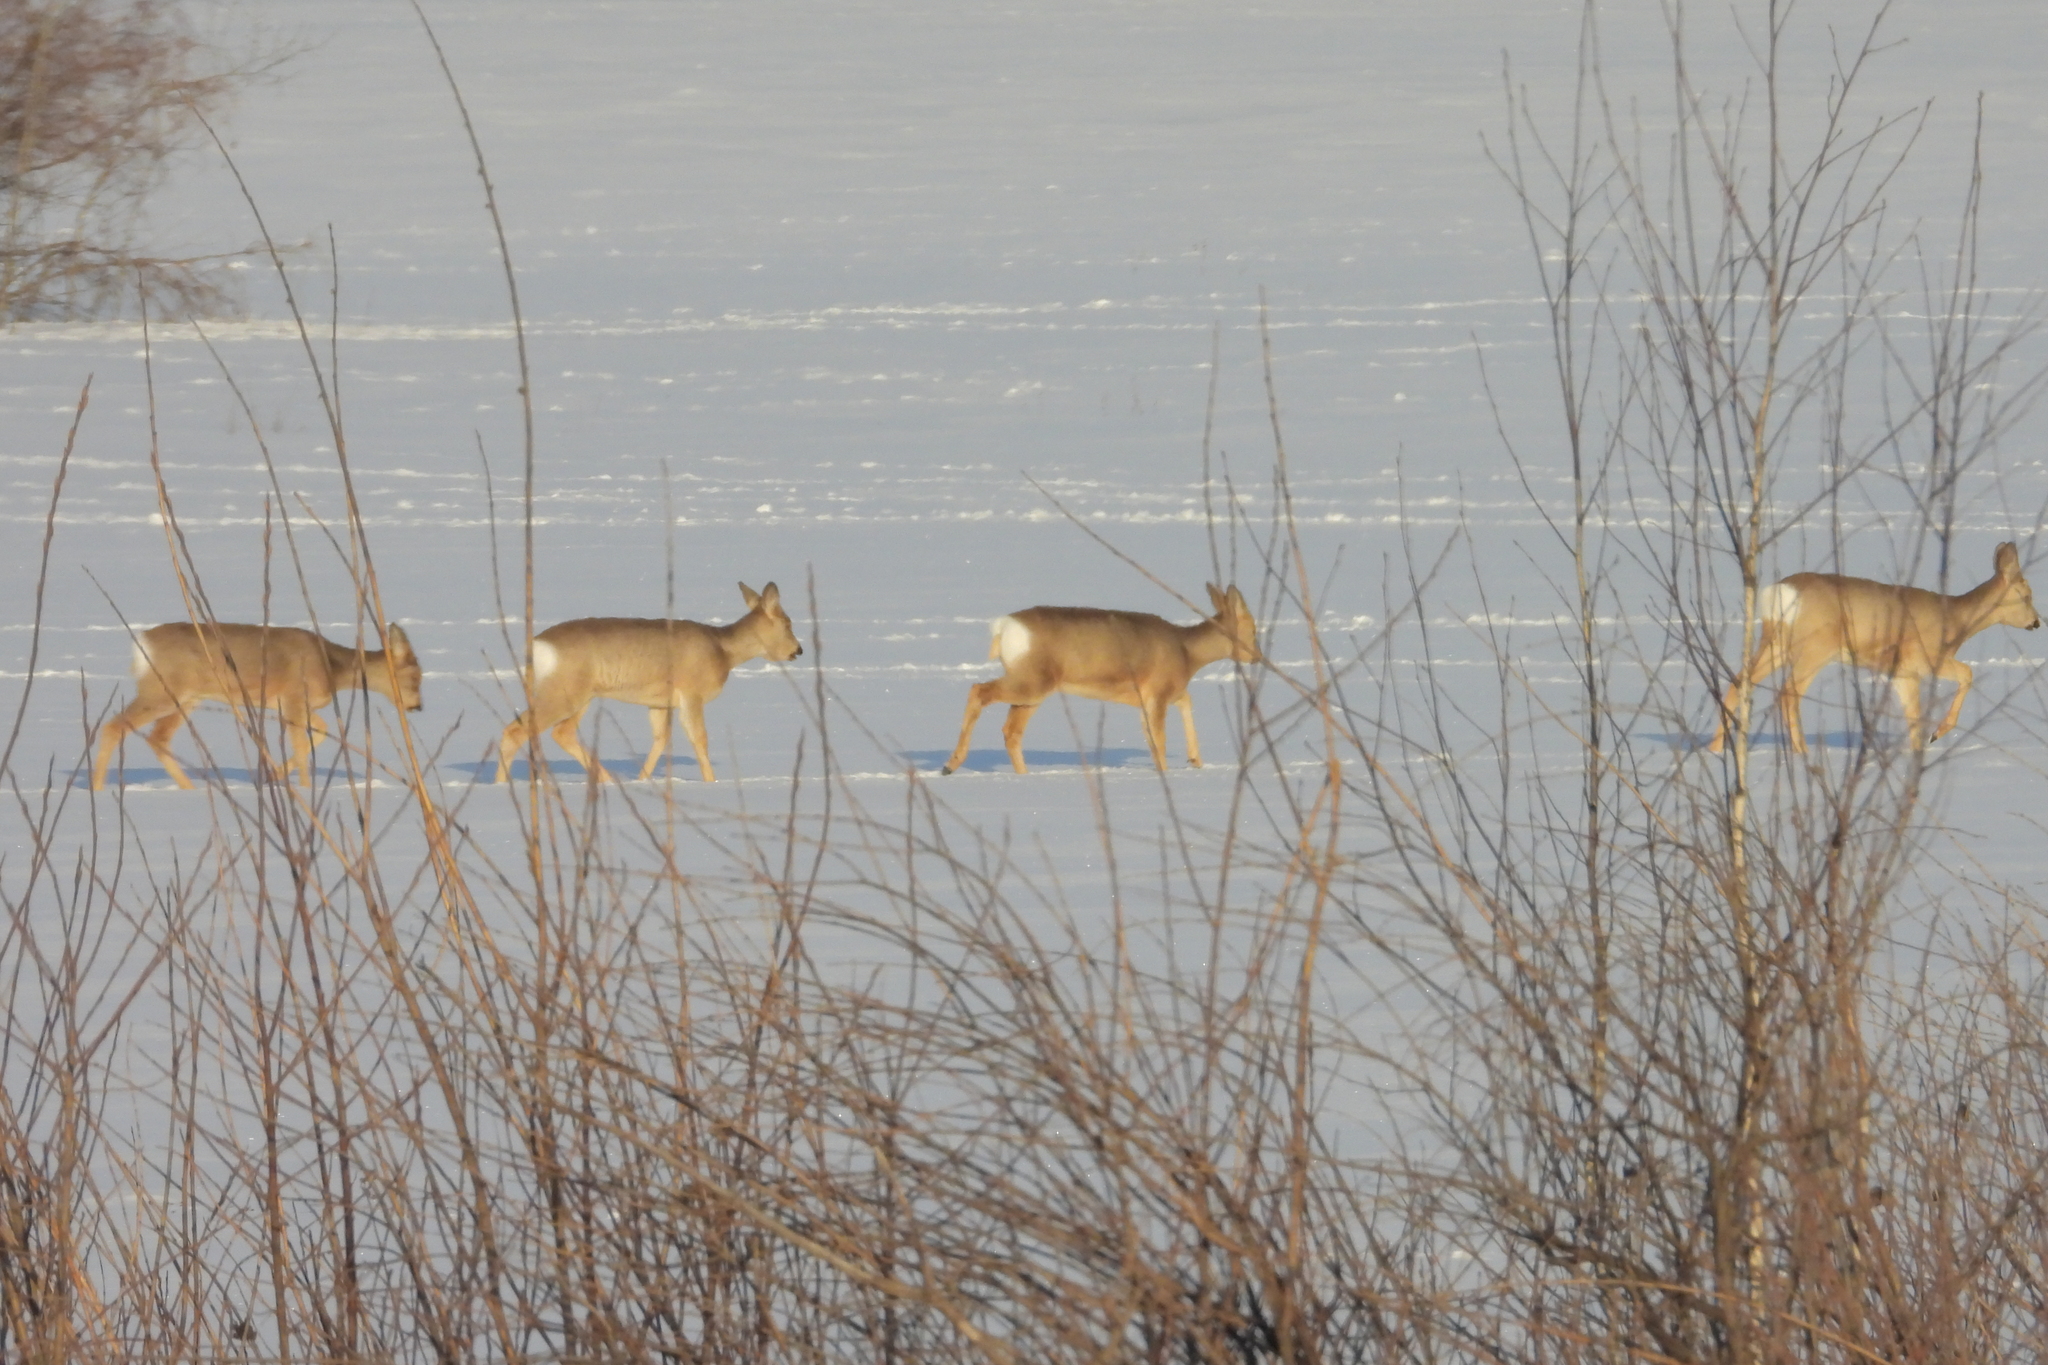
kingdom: Animalia
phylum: Chordata
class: Mammalia
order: Artiodactyla
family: Cervidae
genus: Capreolus
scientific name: Capreolus pygargus
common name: Siberian roe
